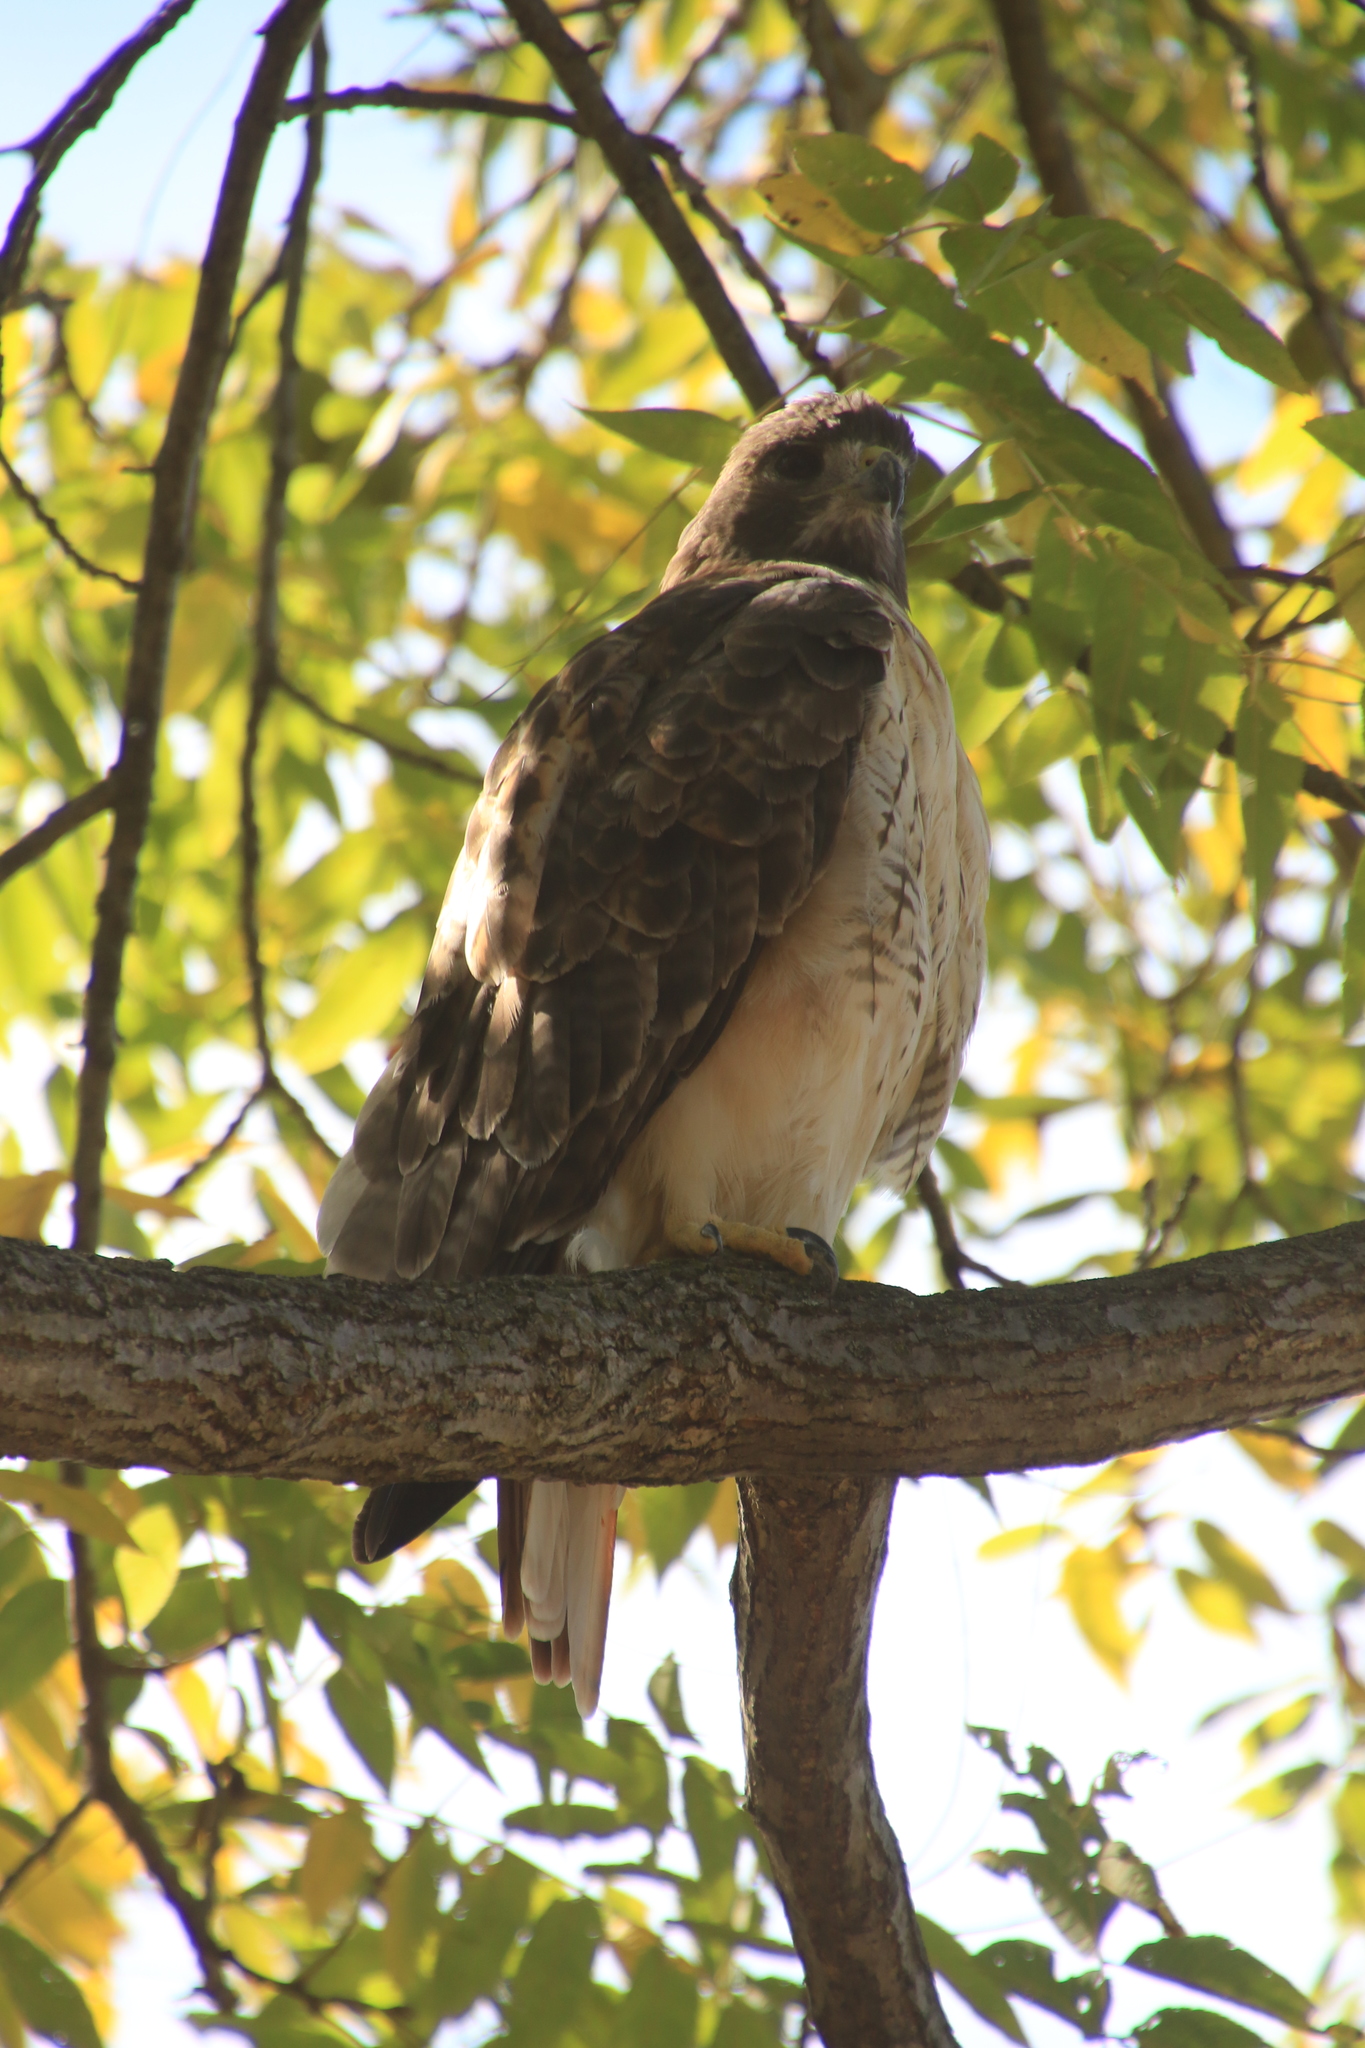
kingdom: Animalia
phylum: Chordata
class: Aves
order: Accipitriformes
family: Accipitridae
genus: Buteo
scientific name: Buteo jamaicensis
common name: Red-tailed hawk
